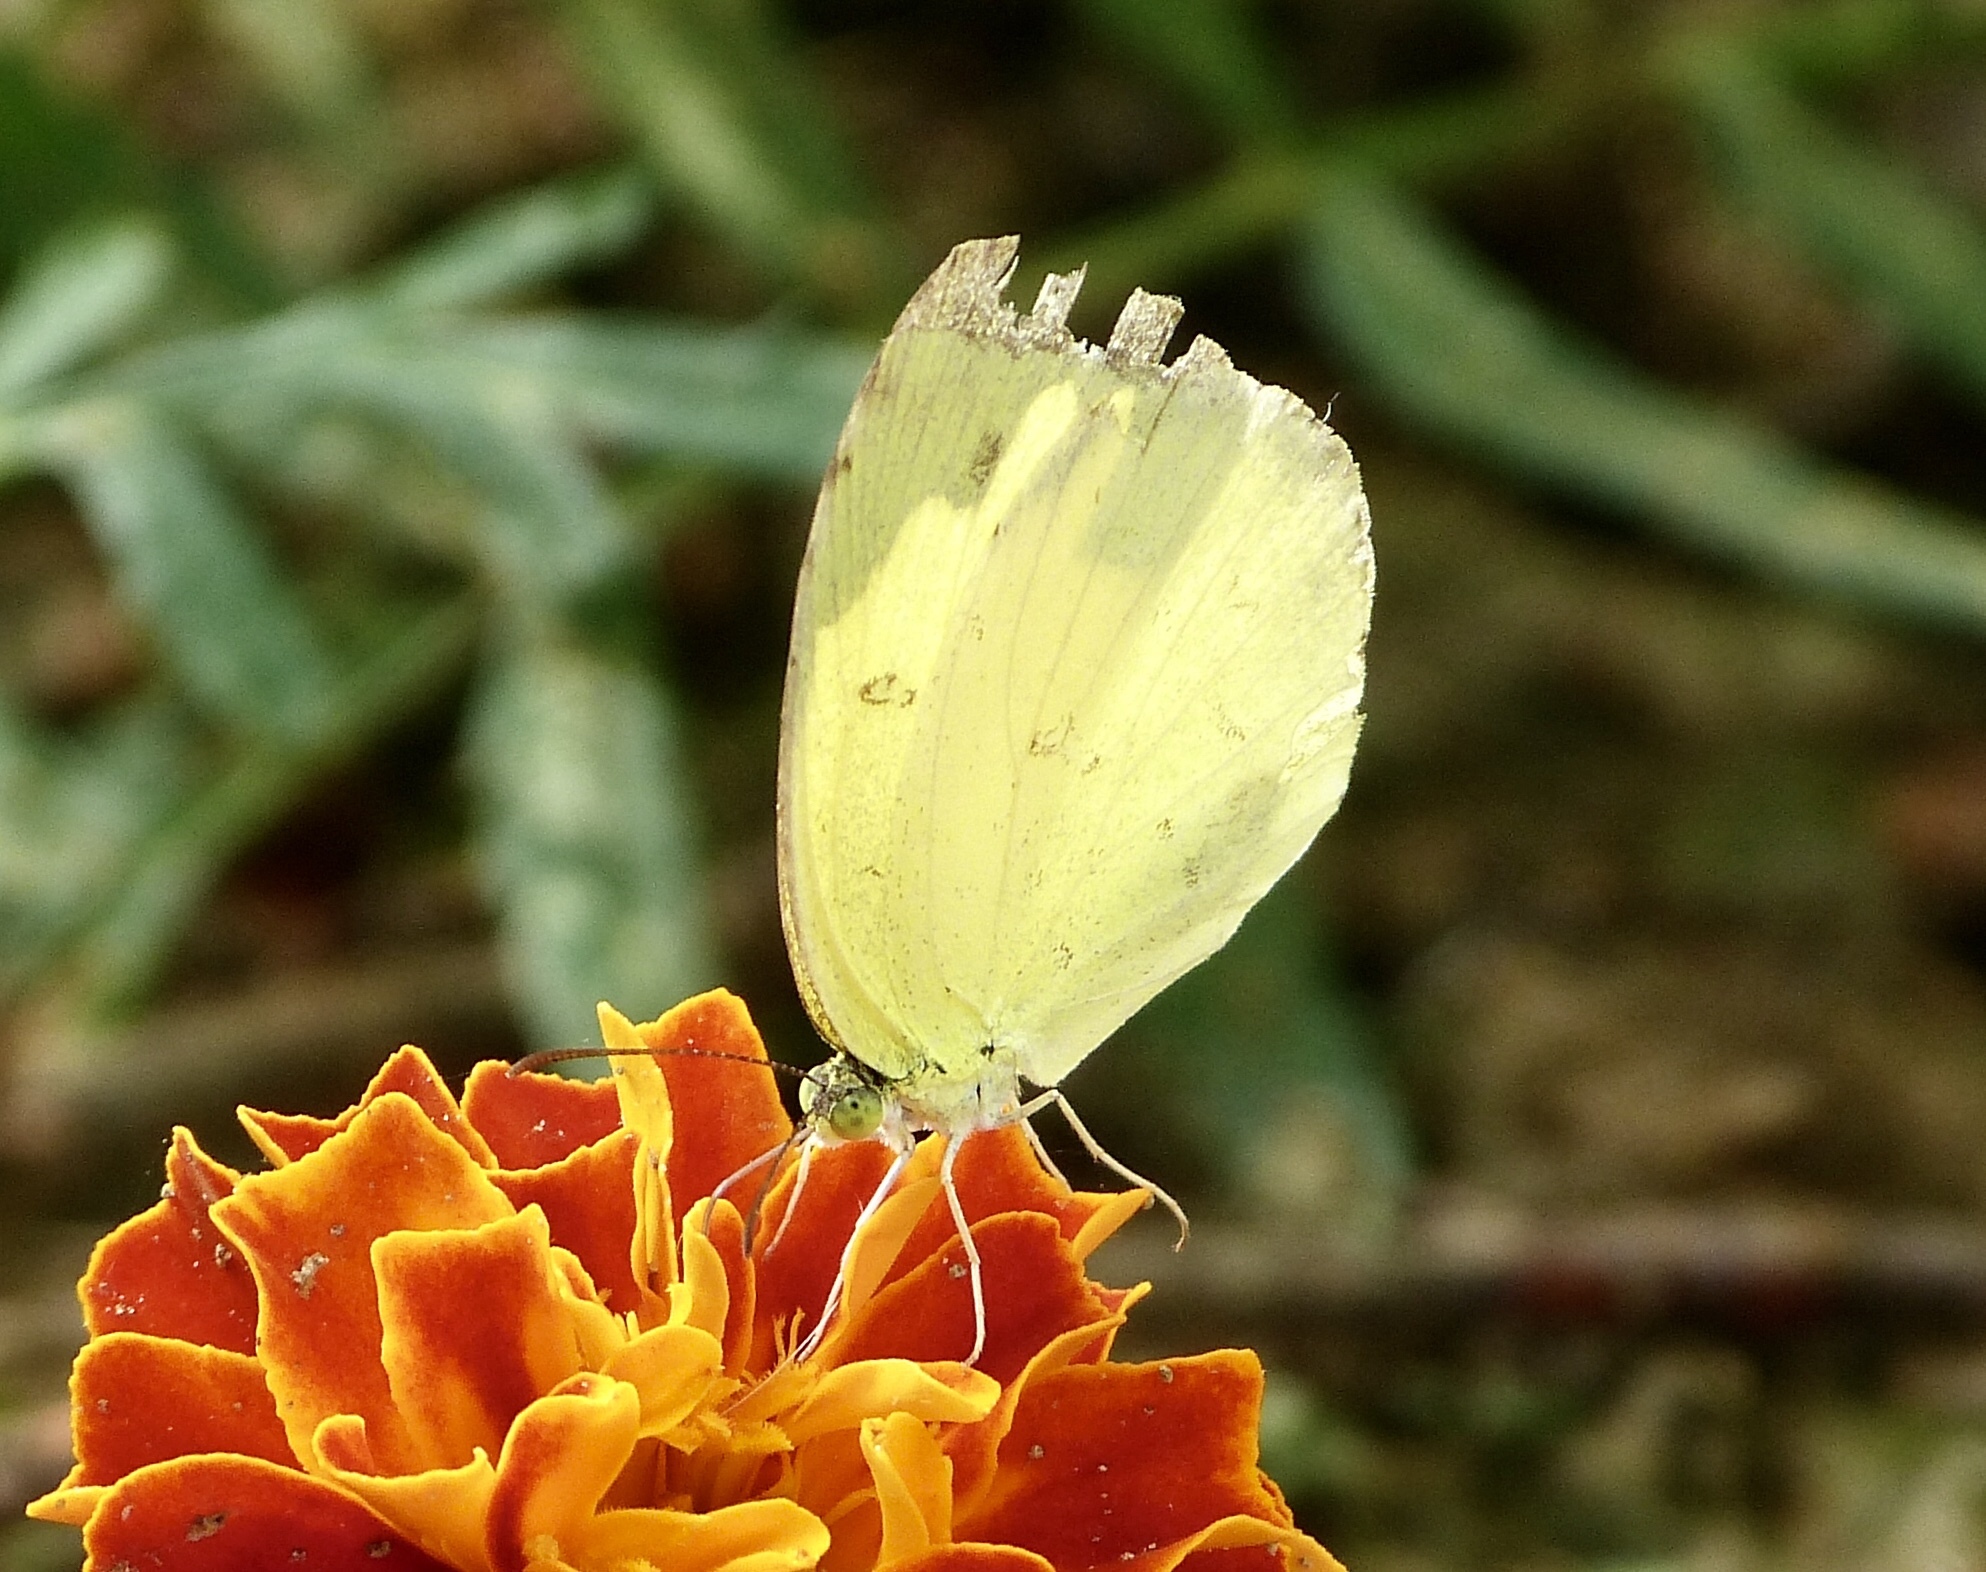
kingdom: Animalia
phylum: Arthropoda
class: Insecta
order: Lepidoptera
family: Pieridae
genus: Eurema
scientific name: Eurema hecabe
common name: Pale grass yellow
